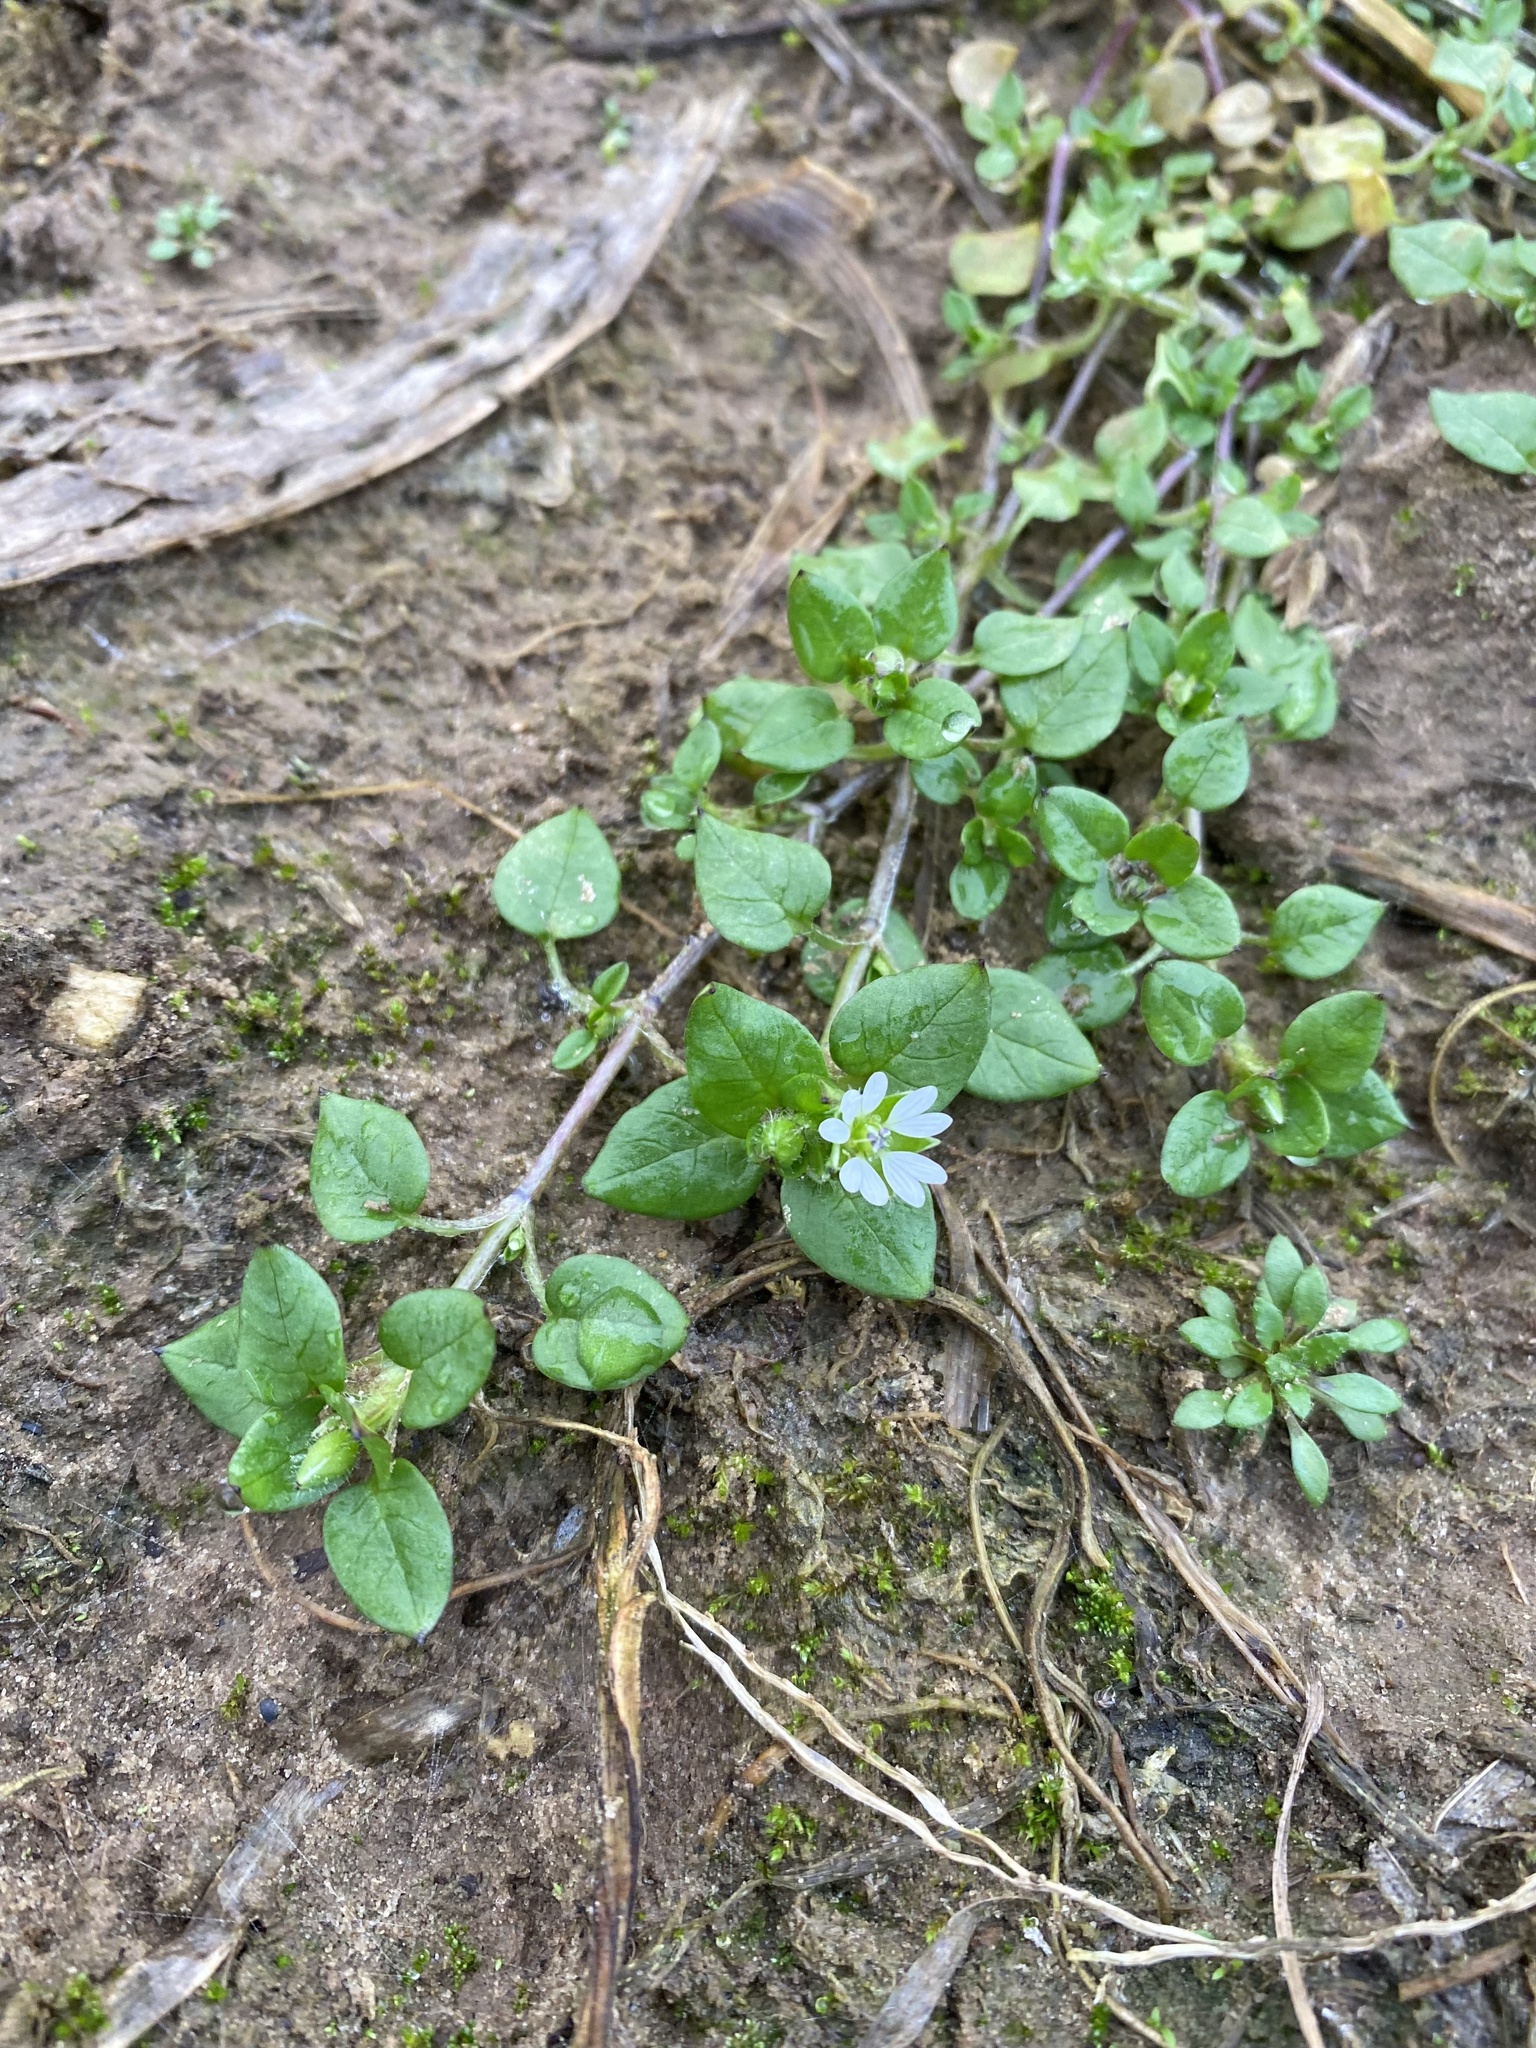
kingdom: Plantae
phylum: Tracheophyta
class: Magnoliopsida
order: Caryophyllales
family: Caryophyllaceae
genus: Stellaria
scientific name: Stellaria media
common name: Common chickweed
